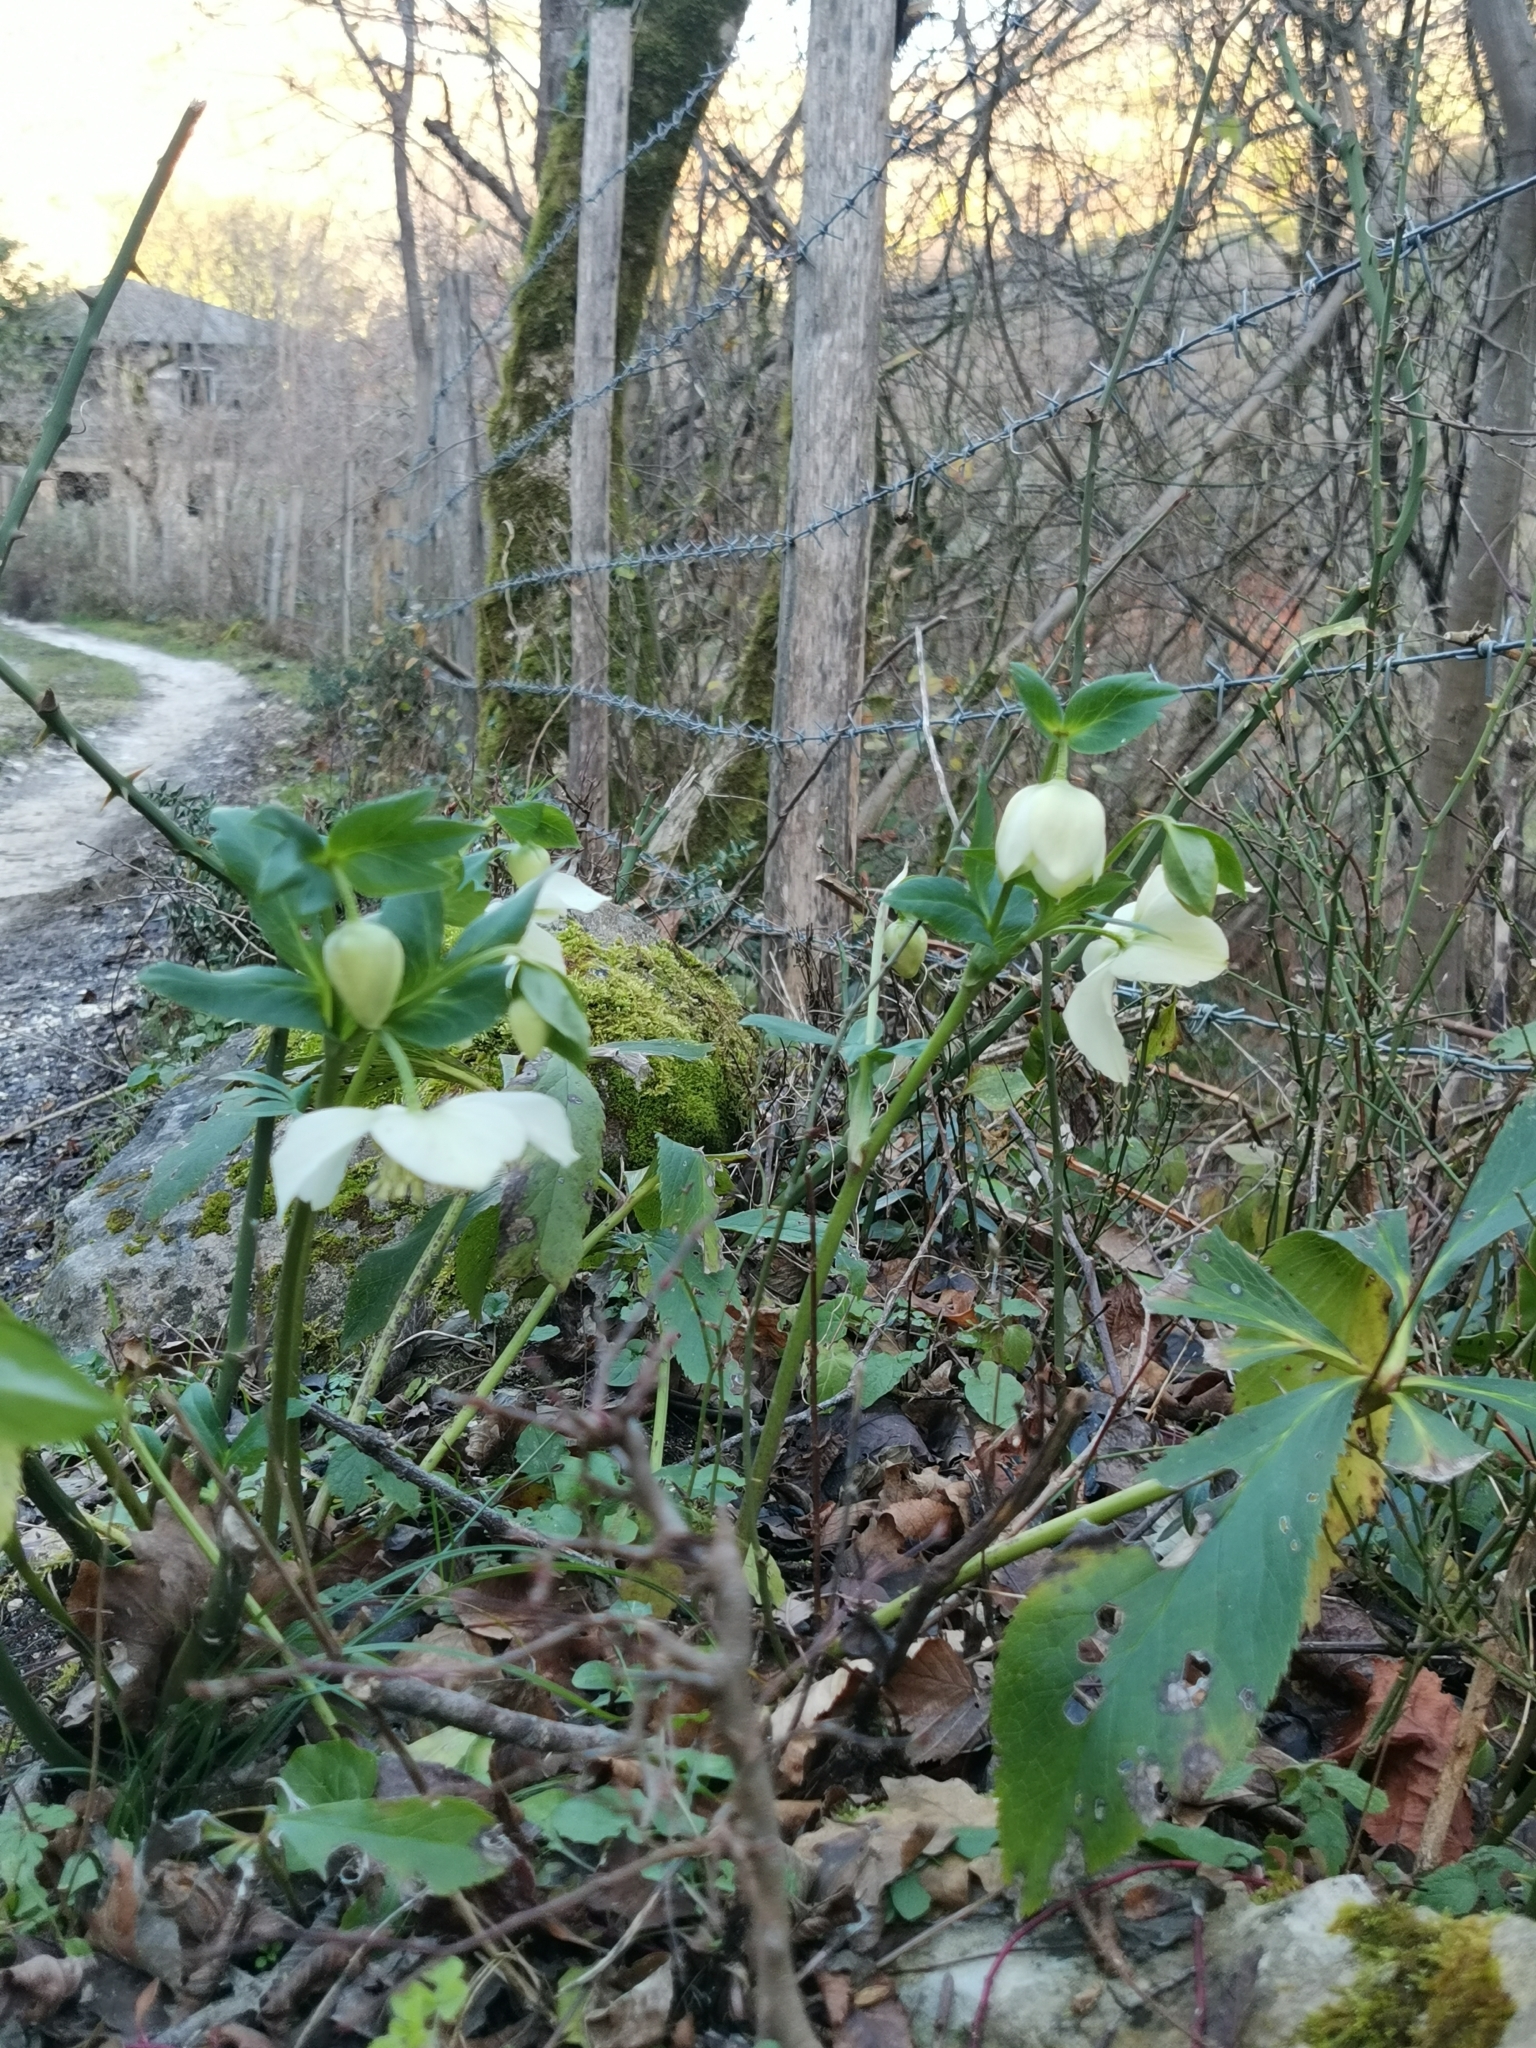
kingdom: Plantae
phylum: Tracheophyta
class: Magnoliopsida
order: Ranunculales
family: Ranunculaceae
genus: Helleborus
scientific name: Helleborus orientalis
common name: Lenten-rose
